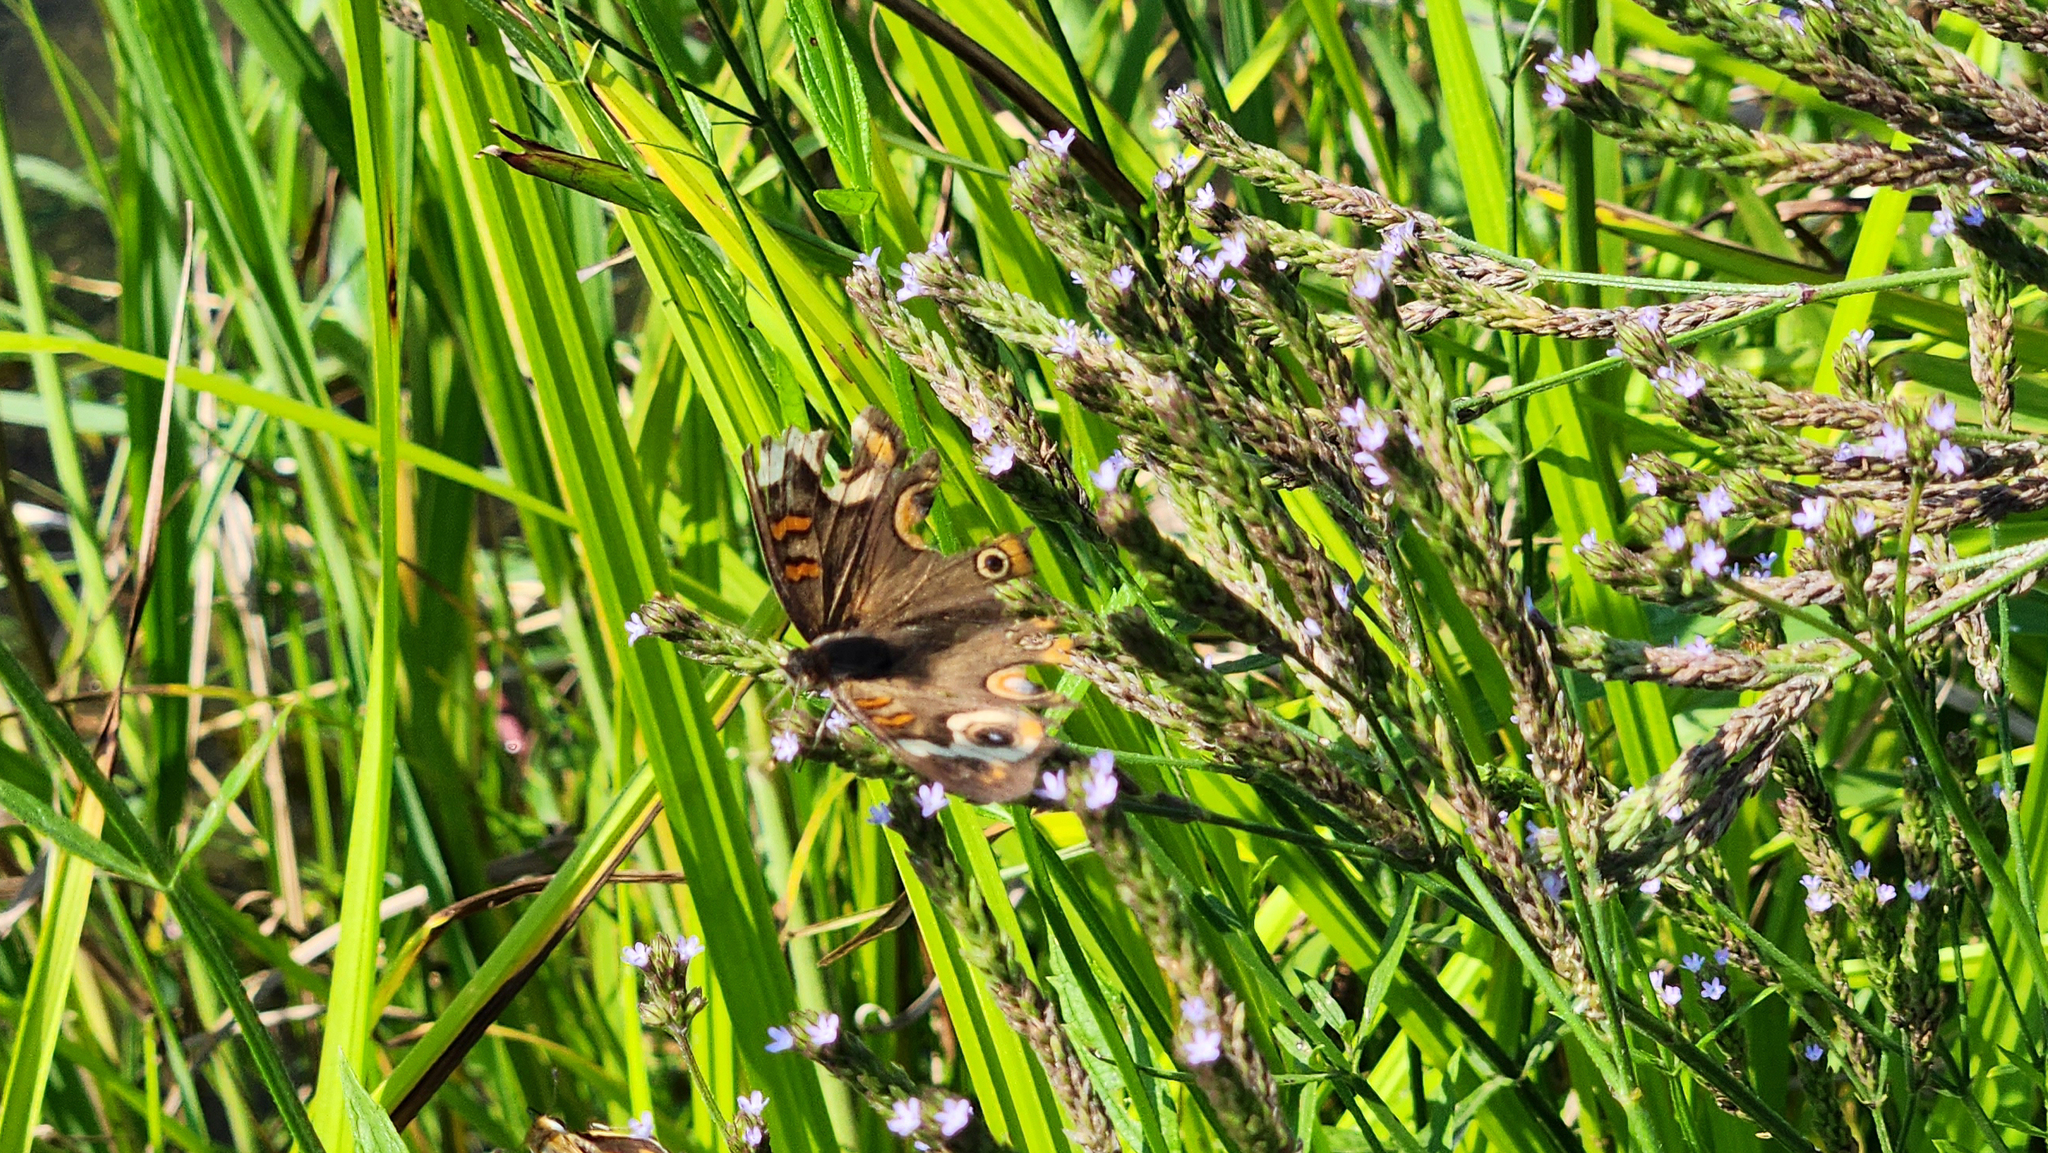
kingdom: Animalia
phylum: Arthropoda
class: Insecta
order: Lepidoptera
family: Nymphalidae
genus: Junonia
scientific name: Junonia coenia
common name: Common buckeye
